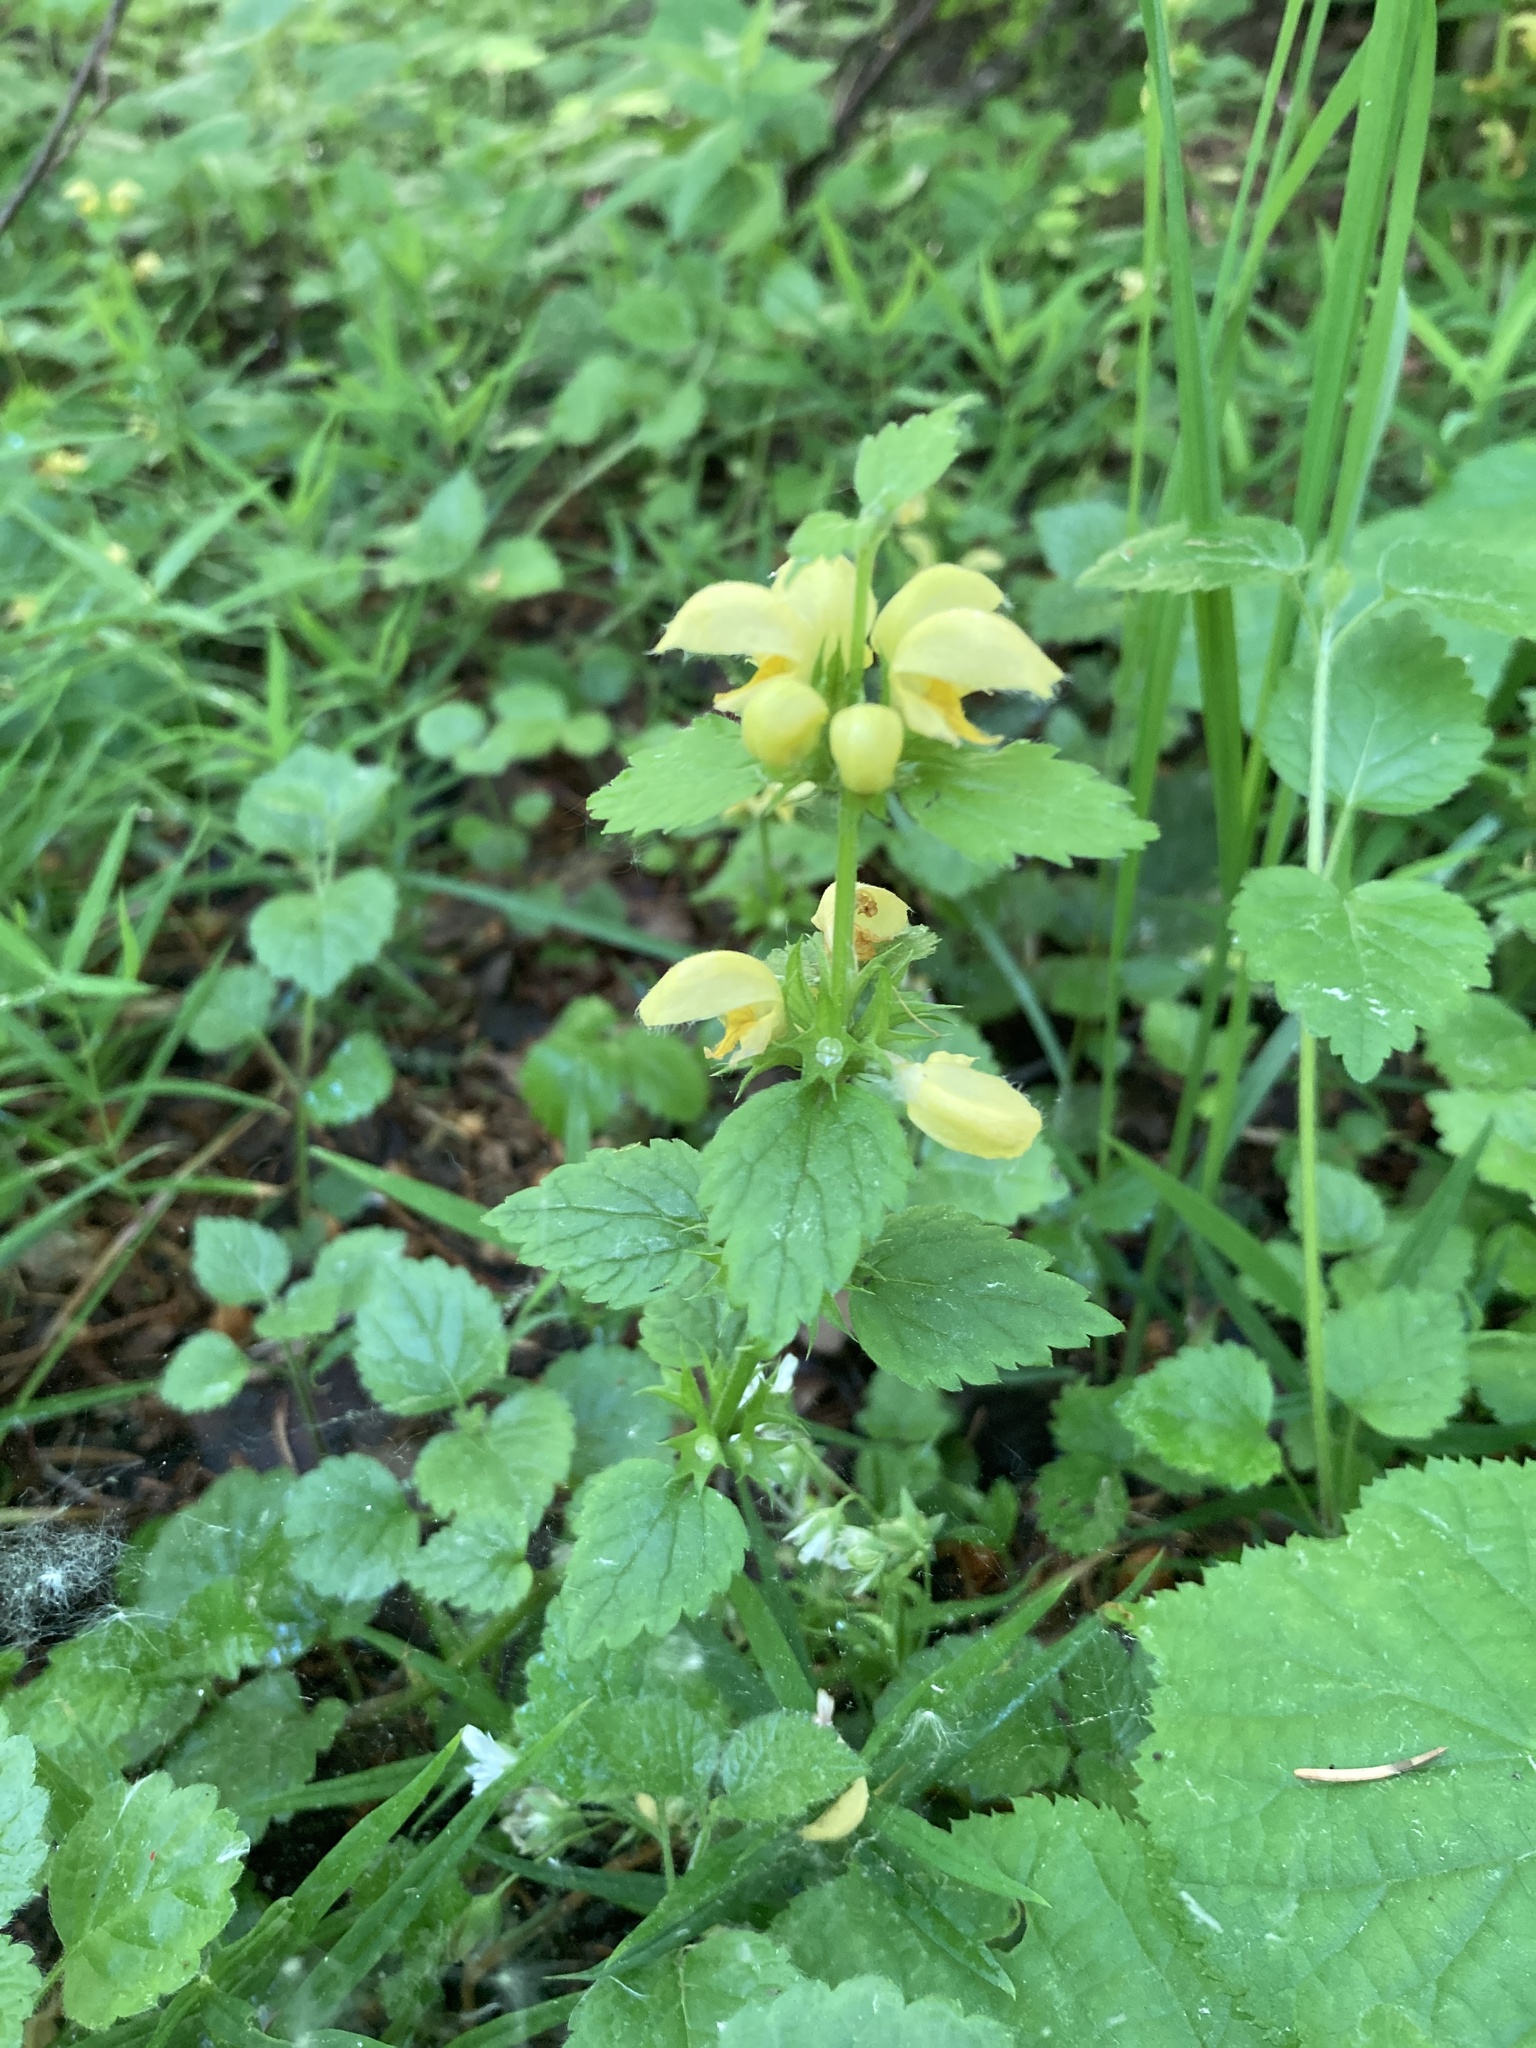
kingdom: Plantae
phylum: Tracheophyta
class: Magnoliopsida
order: Lamiales
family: Lamiaceae
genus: Lamium
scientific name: Lamium galeobdolon
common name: Yellow archangel
